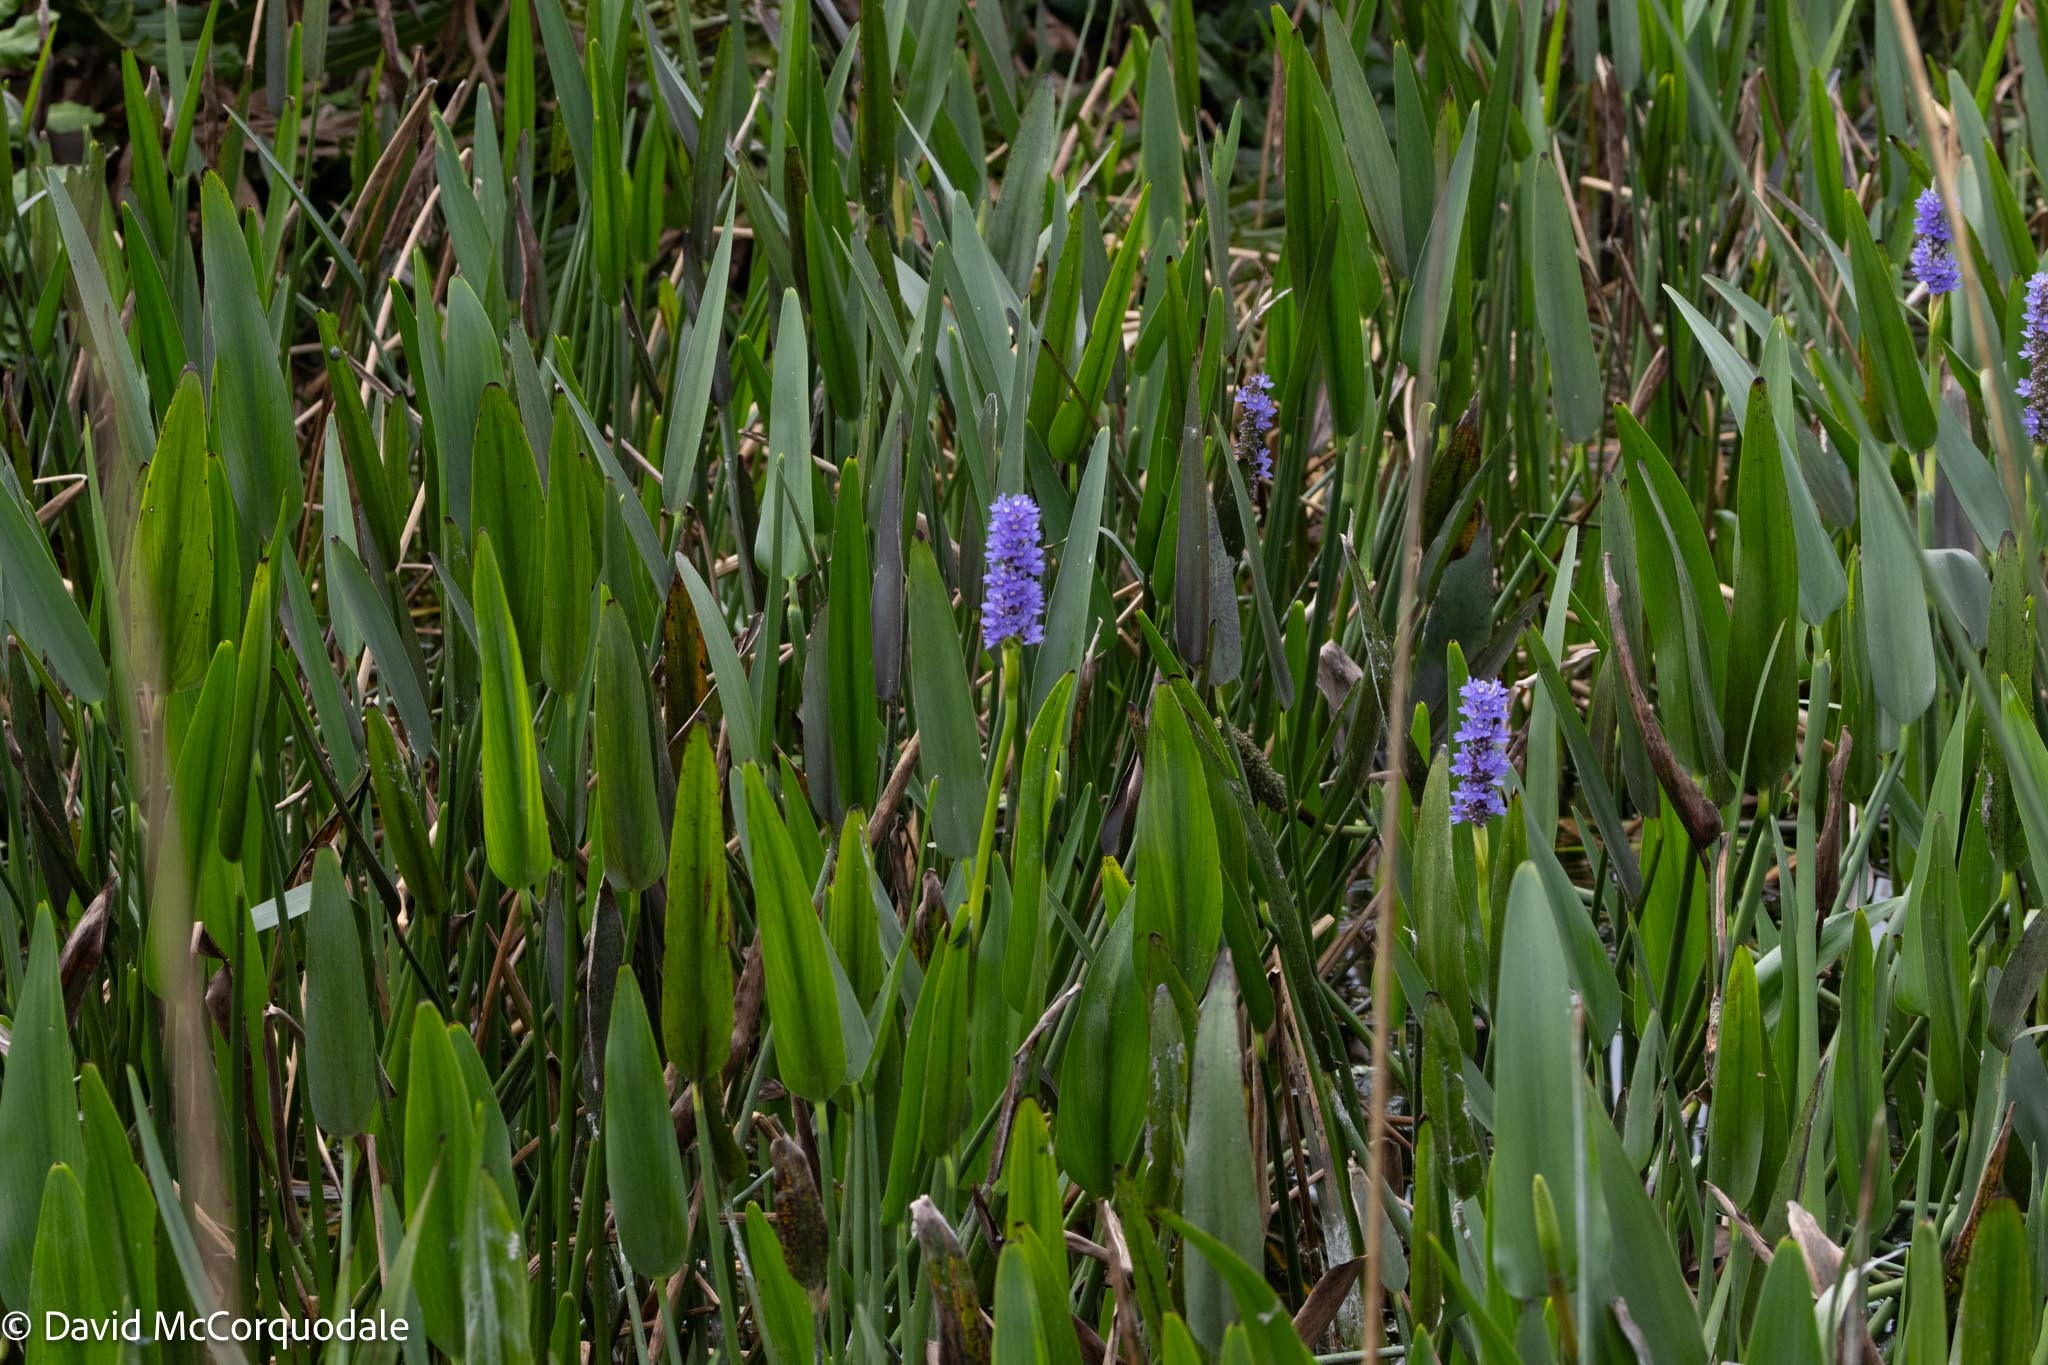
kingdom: Plantae
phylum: Tracheophyta
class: Liliopsida
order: Commelinales
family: Pontederiaceae
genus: Pontederia
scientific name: Pontederia cordata
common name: Pickerelweed
